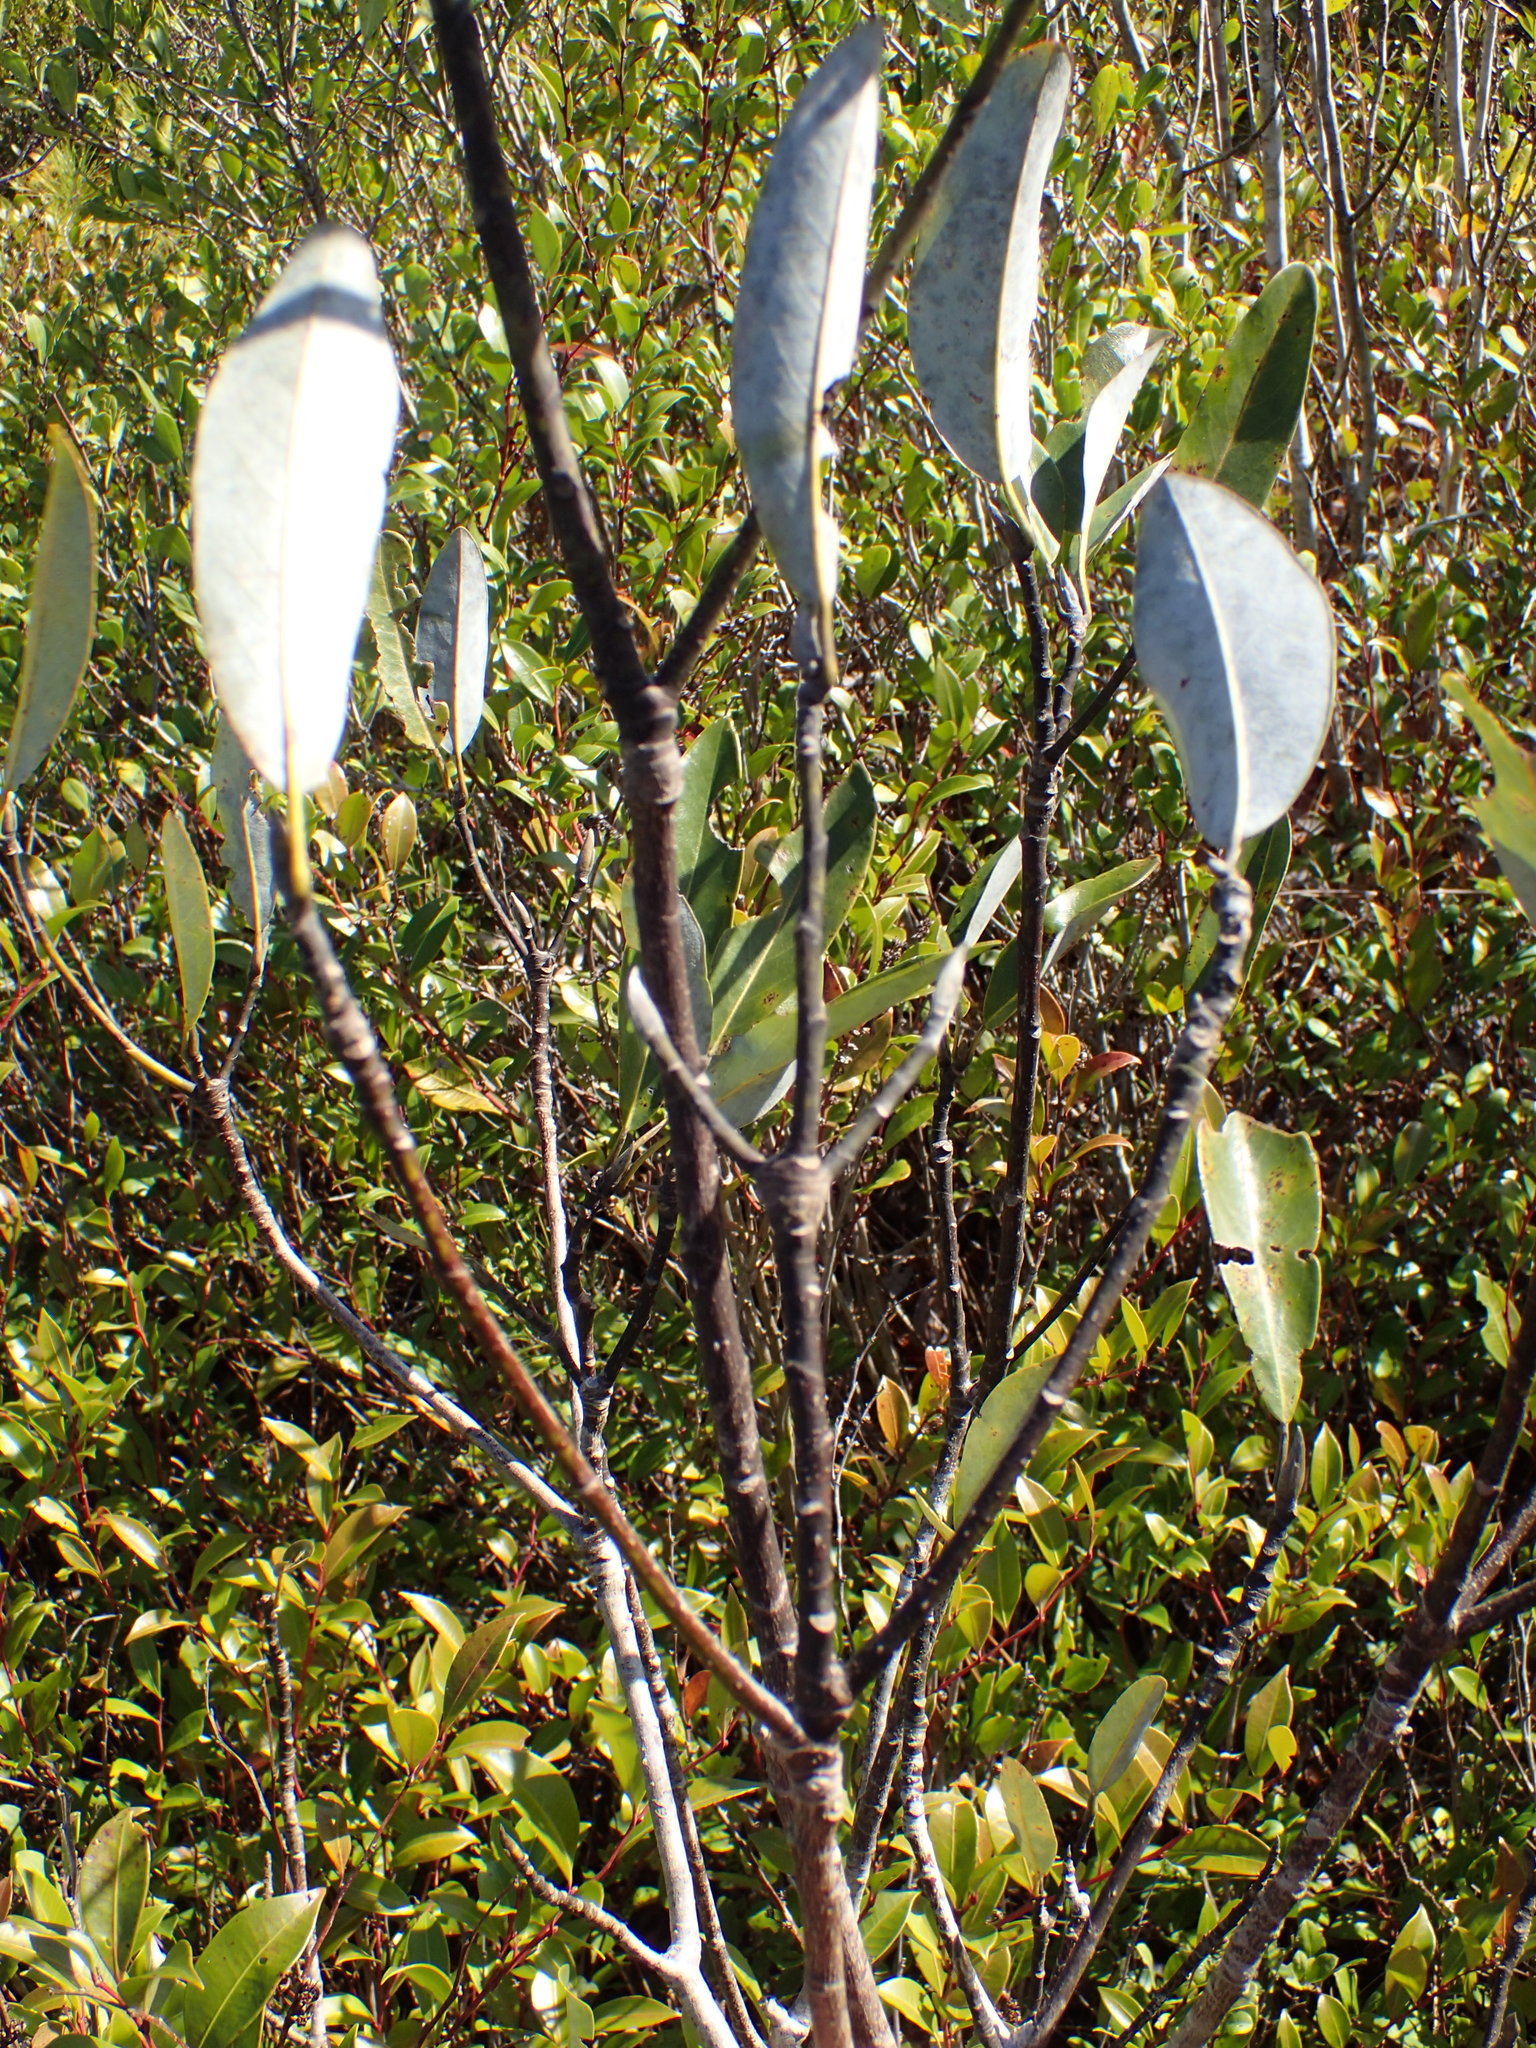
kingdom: Plantae
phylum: Tracheophyta
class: Magnoliopsida
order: Magnoliales
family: Magnoliaceae
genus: Magnolia
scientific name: Magnolia virginiana
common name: Swamp bay
